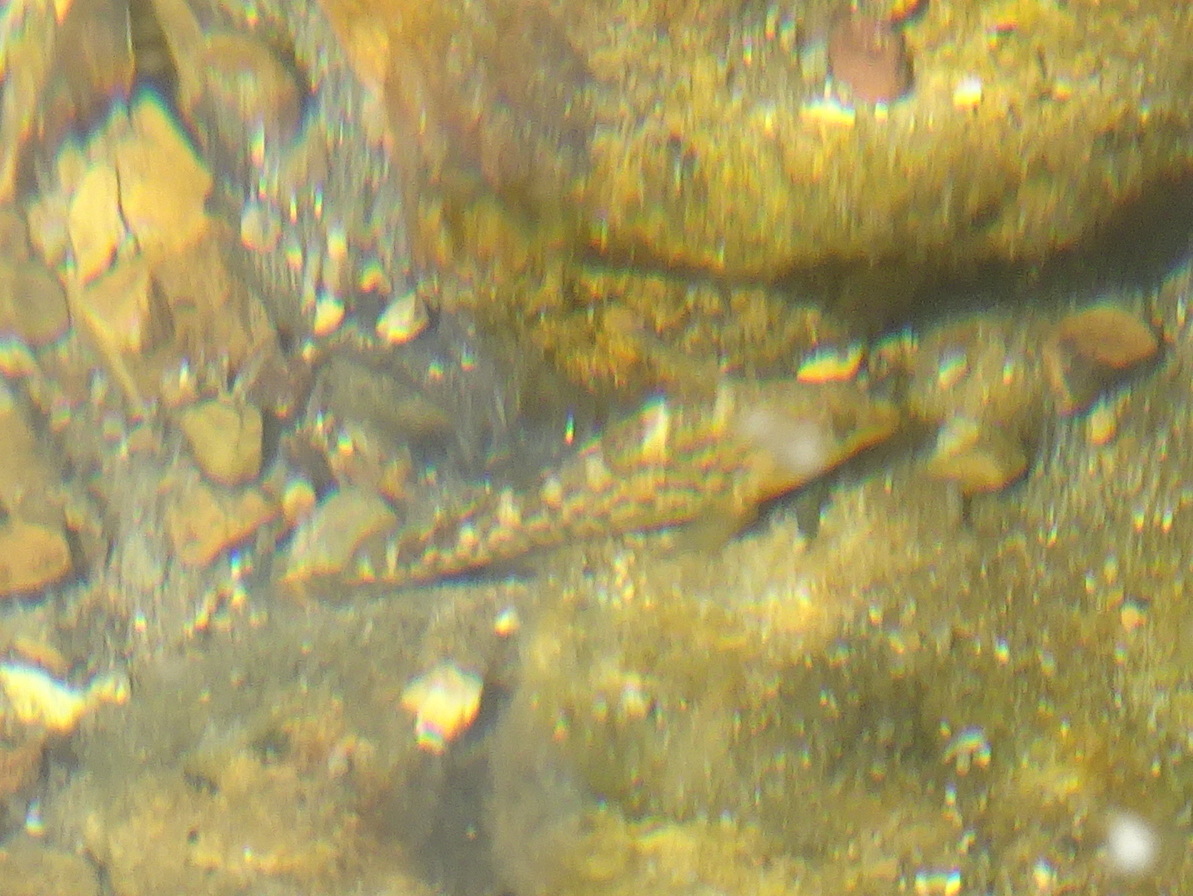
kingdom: Animalia
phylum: Chordata
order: Perciformes
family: Percidae
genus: Etheostoma
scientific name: Etheostoma caeruleum
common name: Rainbow darter
